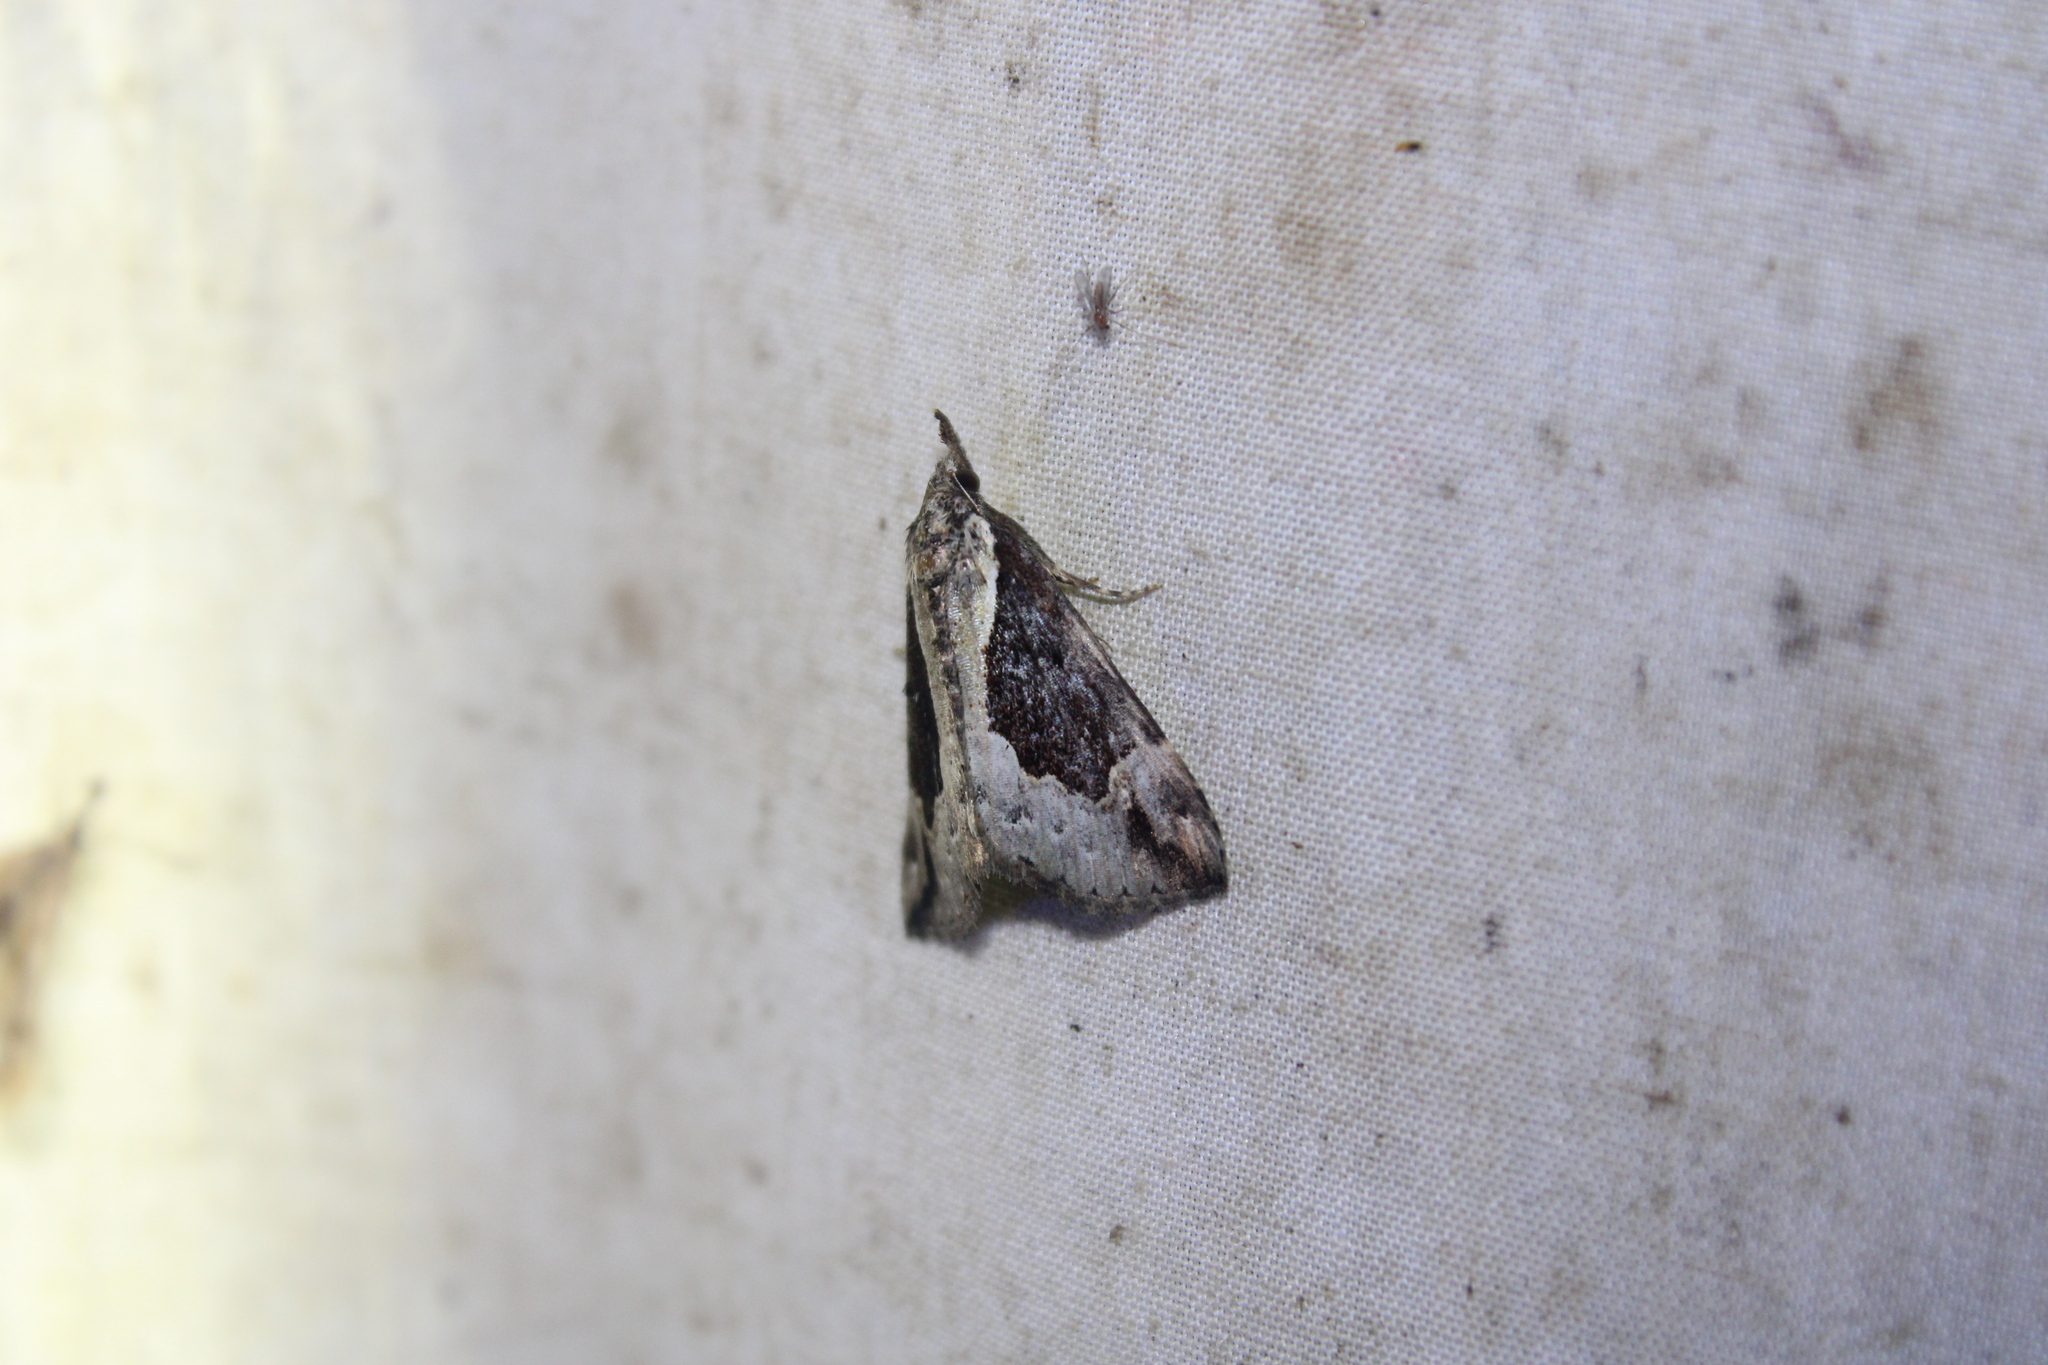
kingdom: Animalia
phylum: Arthropoda
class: Insecta
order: Lepidoptera
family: Erebidae
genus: Hypena
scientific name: Hypena baltimoralis
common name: Baltimore snout
